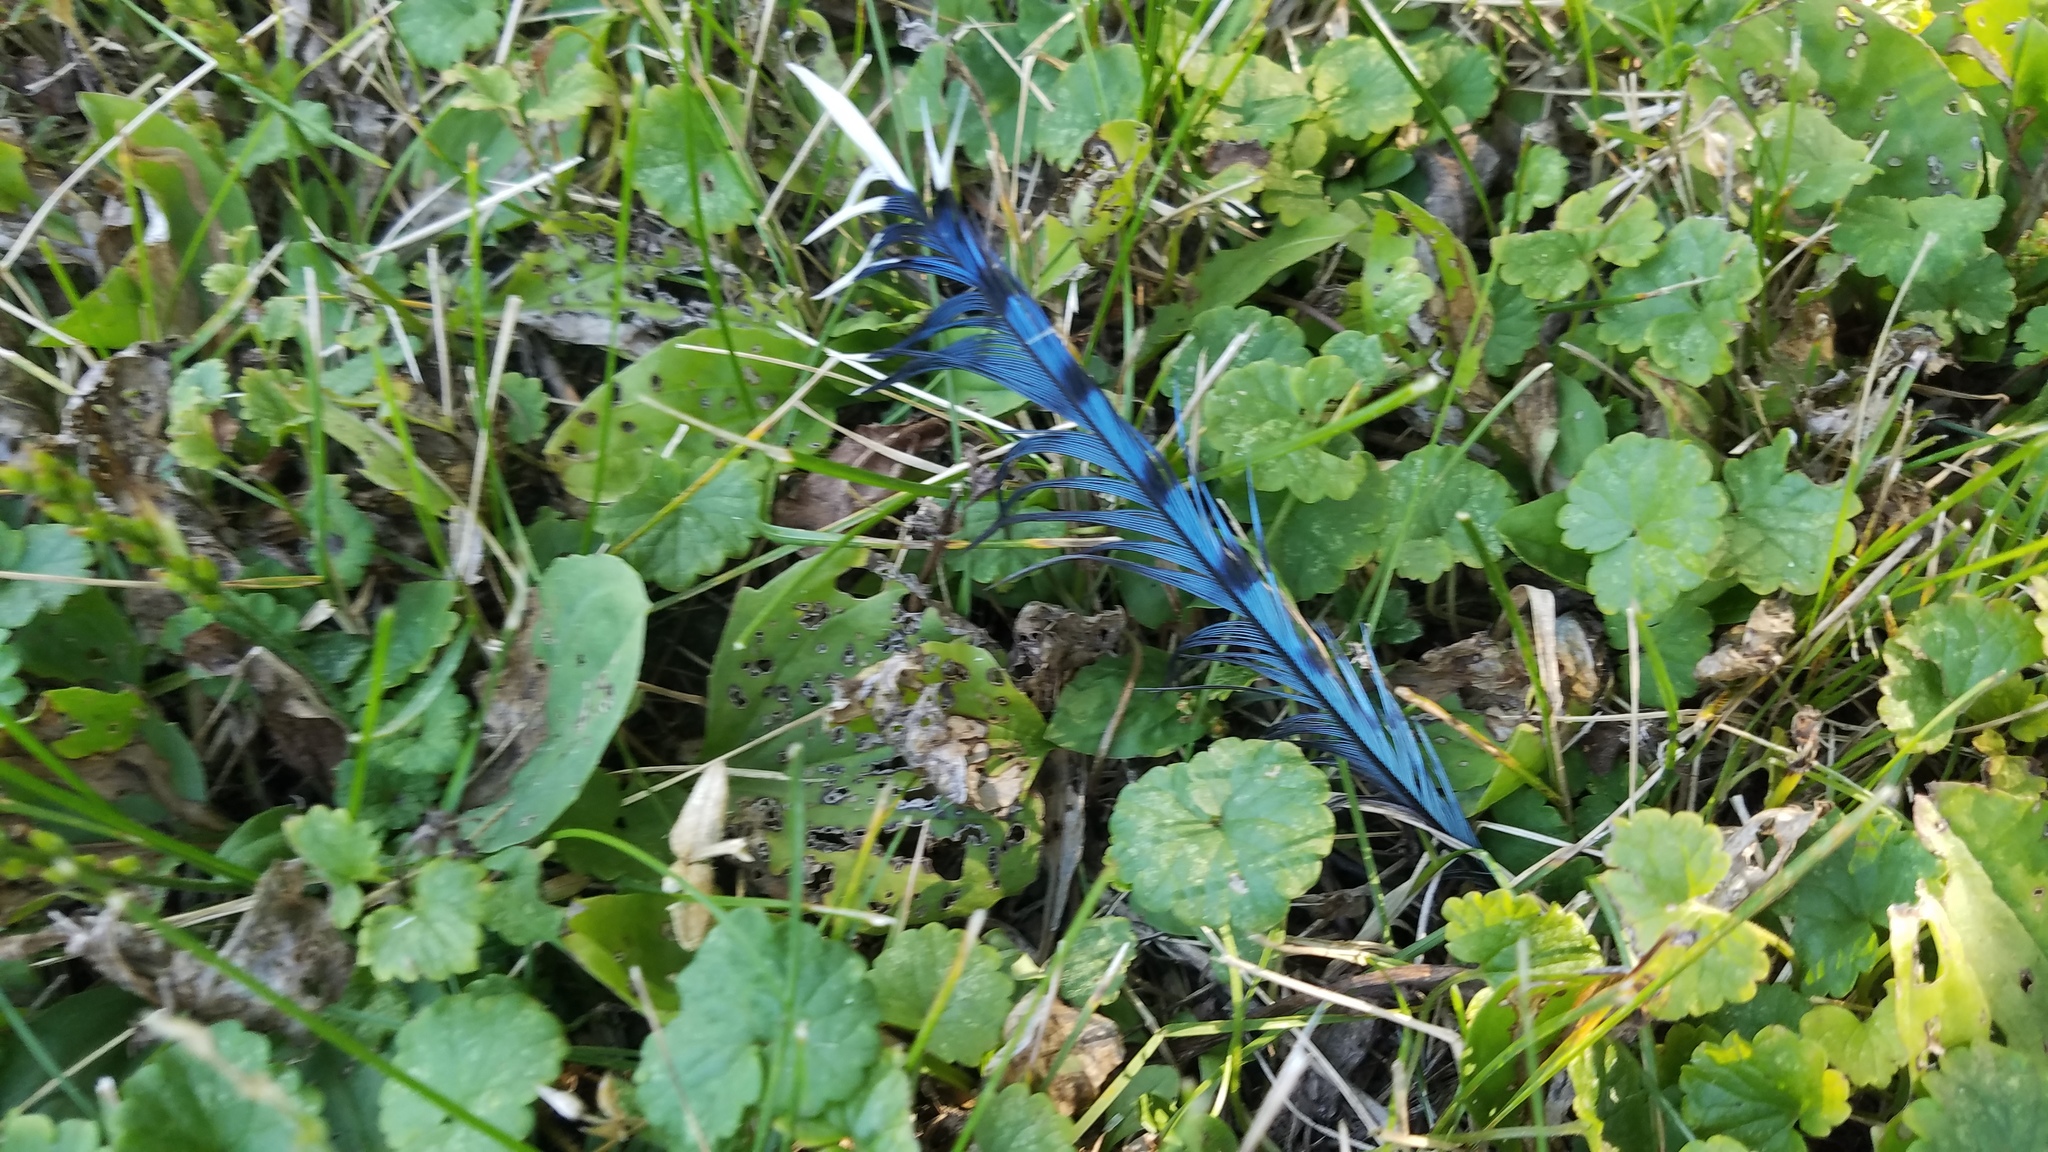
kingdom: Animalia
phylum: Chordata
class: Aves
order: Passeriformes
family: Corvidae
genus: Cyanocitta
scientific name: Cyanocitta cristata
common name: Blue jay
